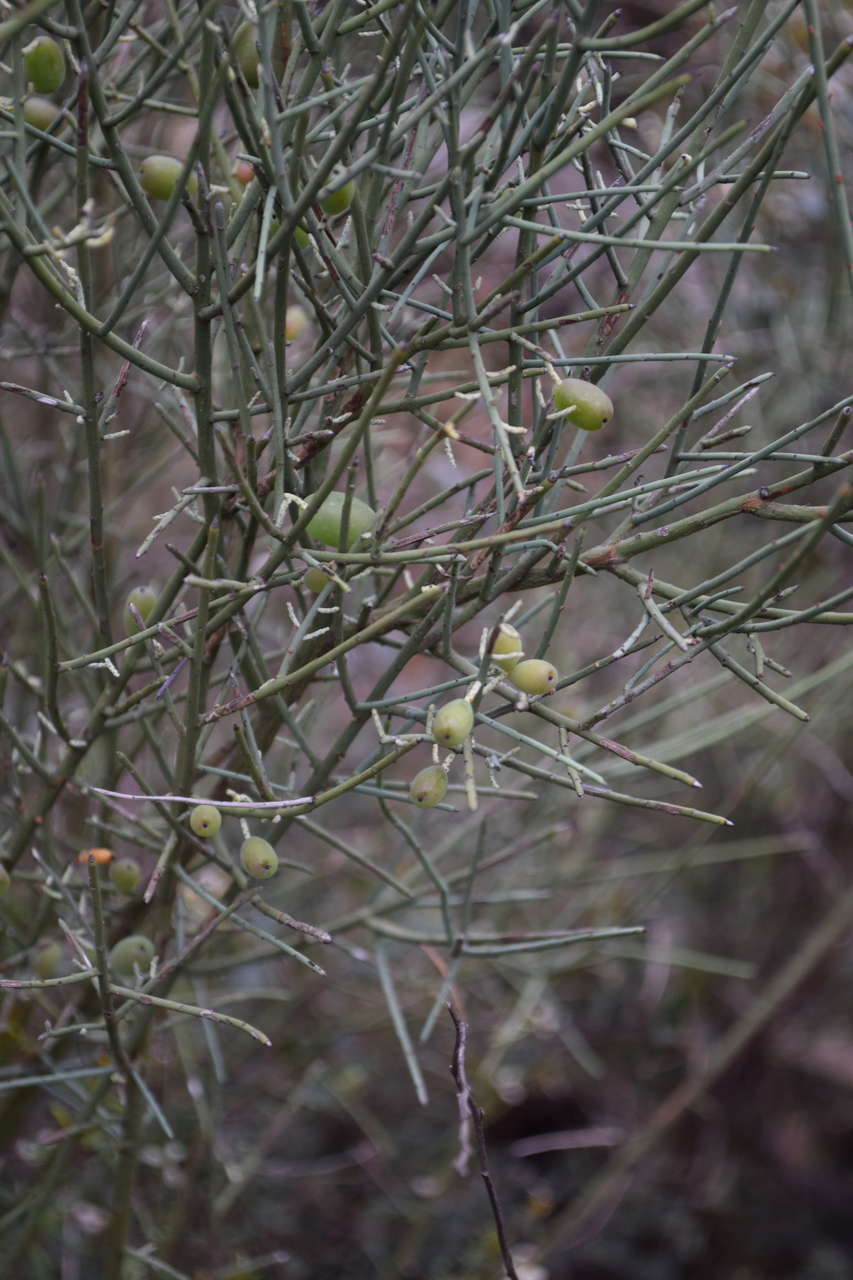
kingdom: Plantae
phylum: Tracheophyta
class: Magnoliopsida
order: Santalales
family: Amphorogynaceae
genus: Leptomeria
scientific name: Leptomeria aphylla
